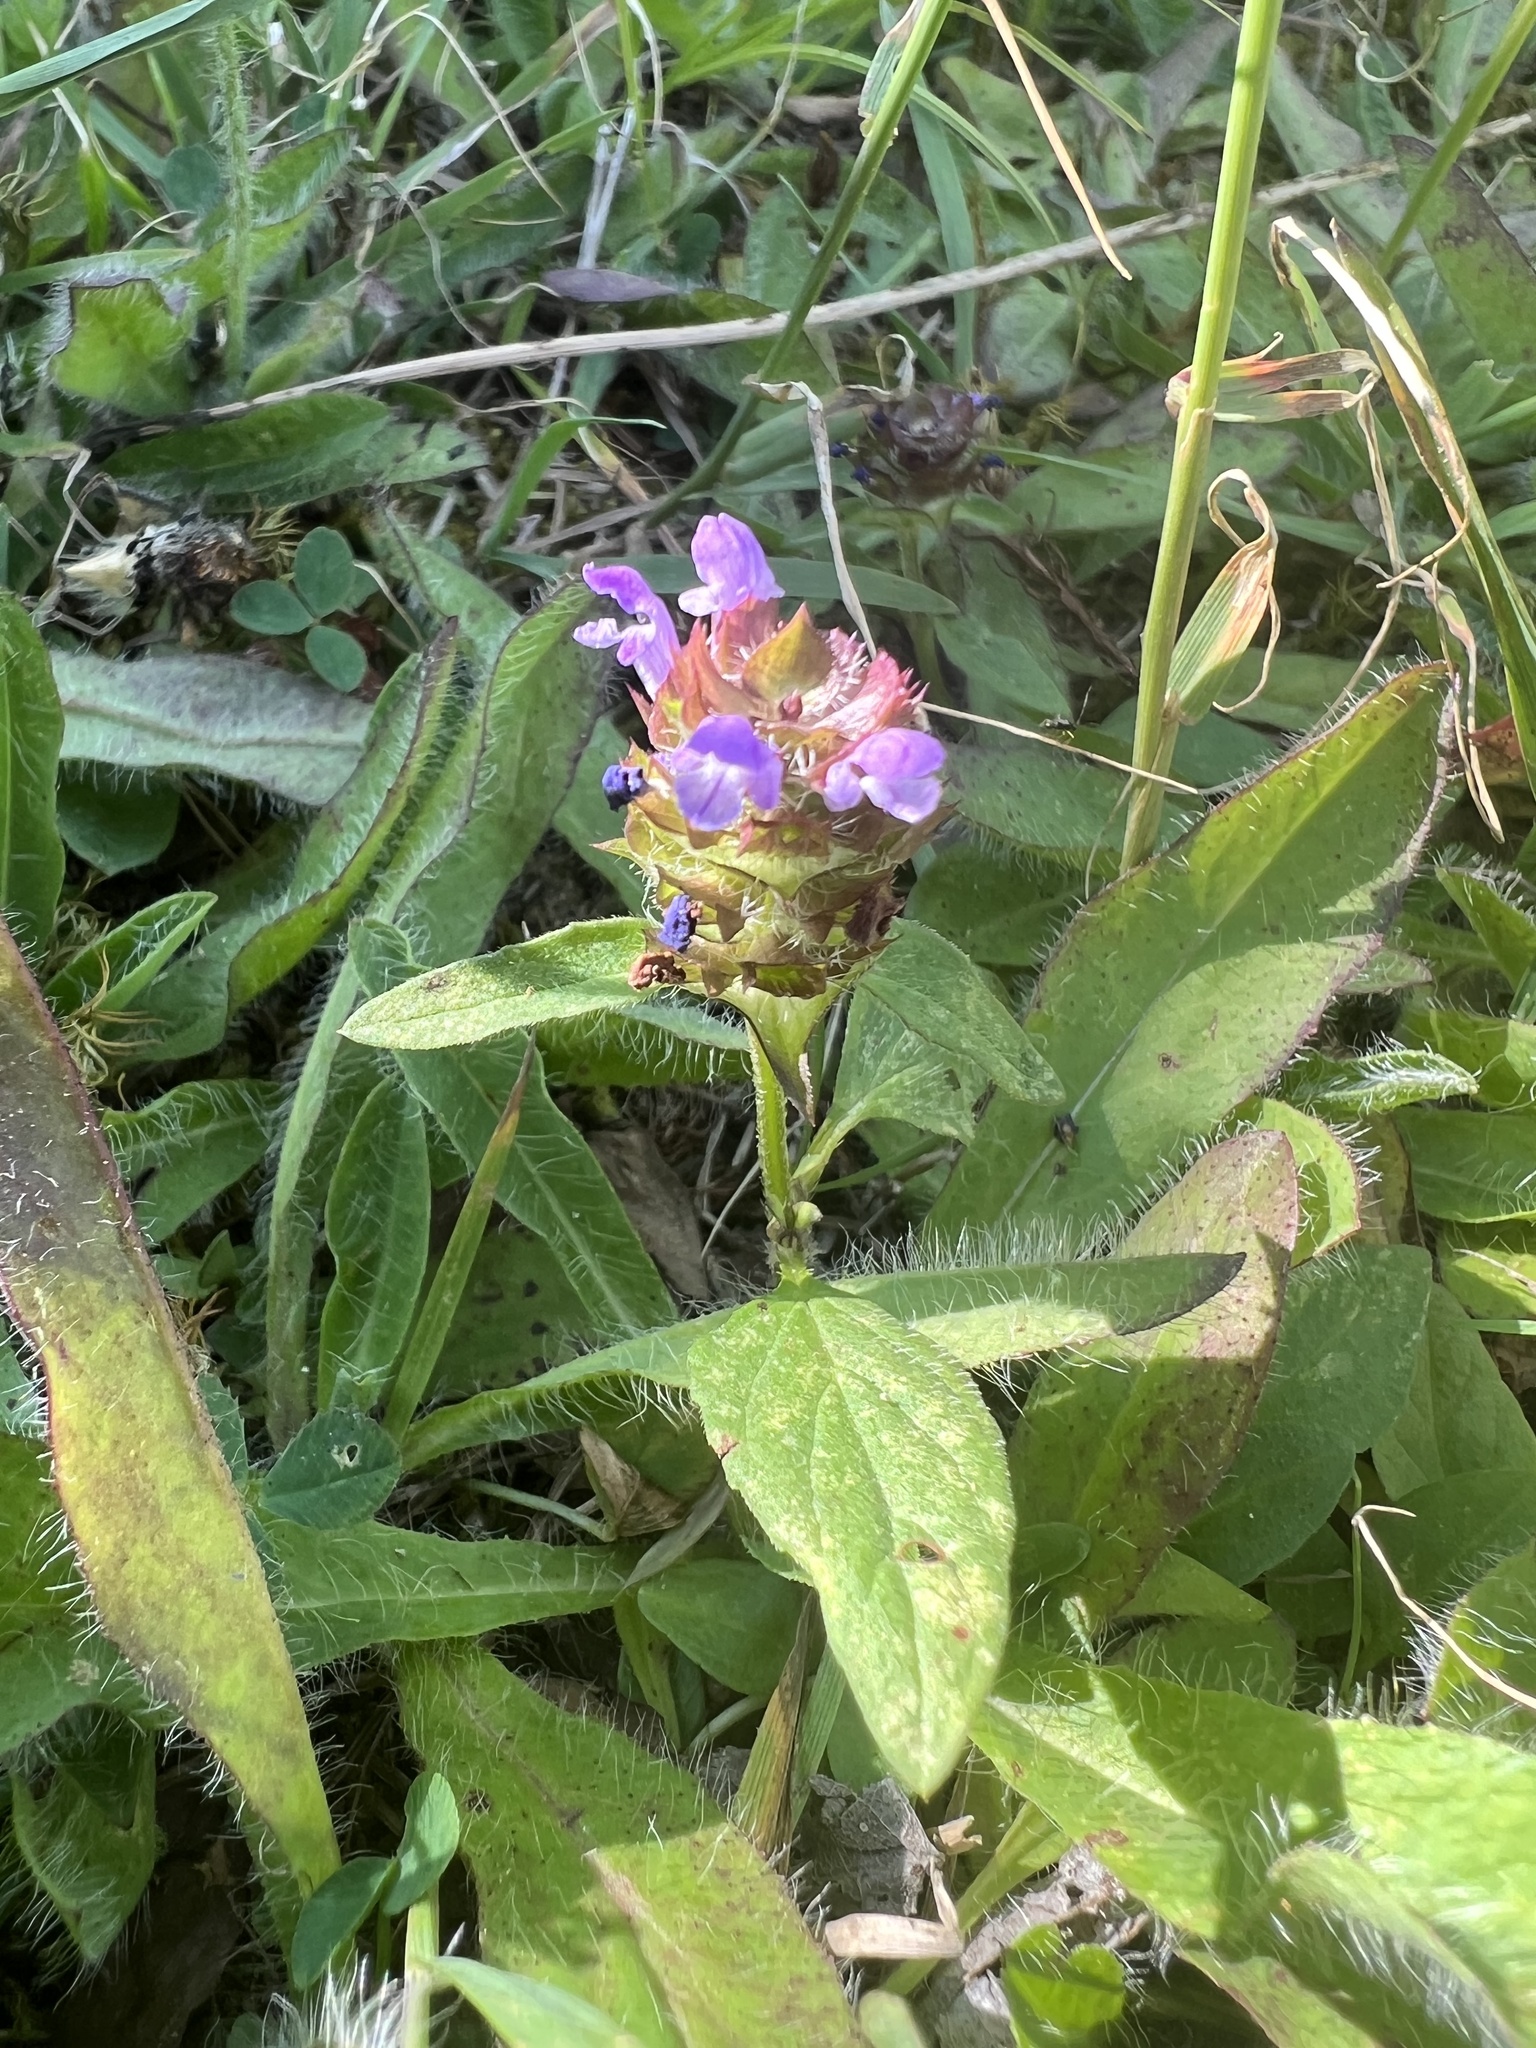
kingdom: Plantae
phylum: Tracheophyta
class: Magnoliopsida
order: Lamiales
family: Lamiaceae
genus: Prunella
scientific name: Prunella vulgaris
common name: Heal-all
